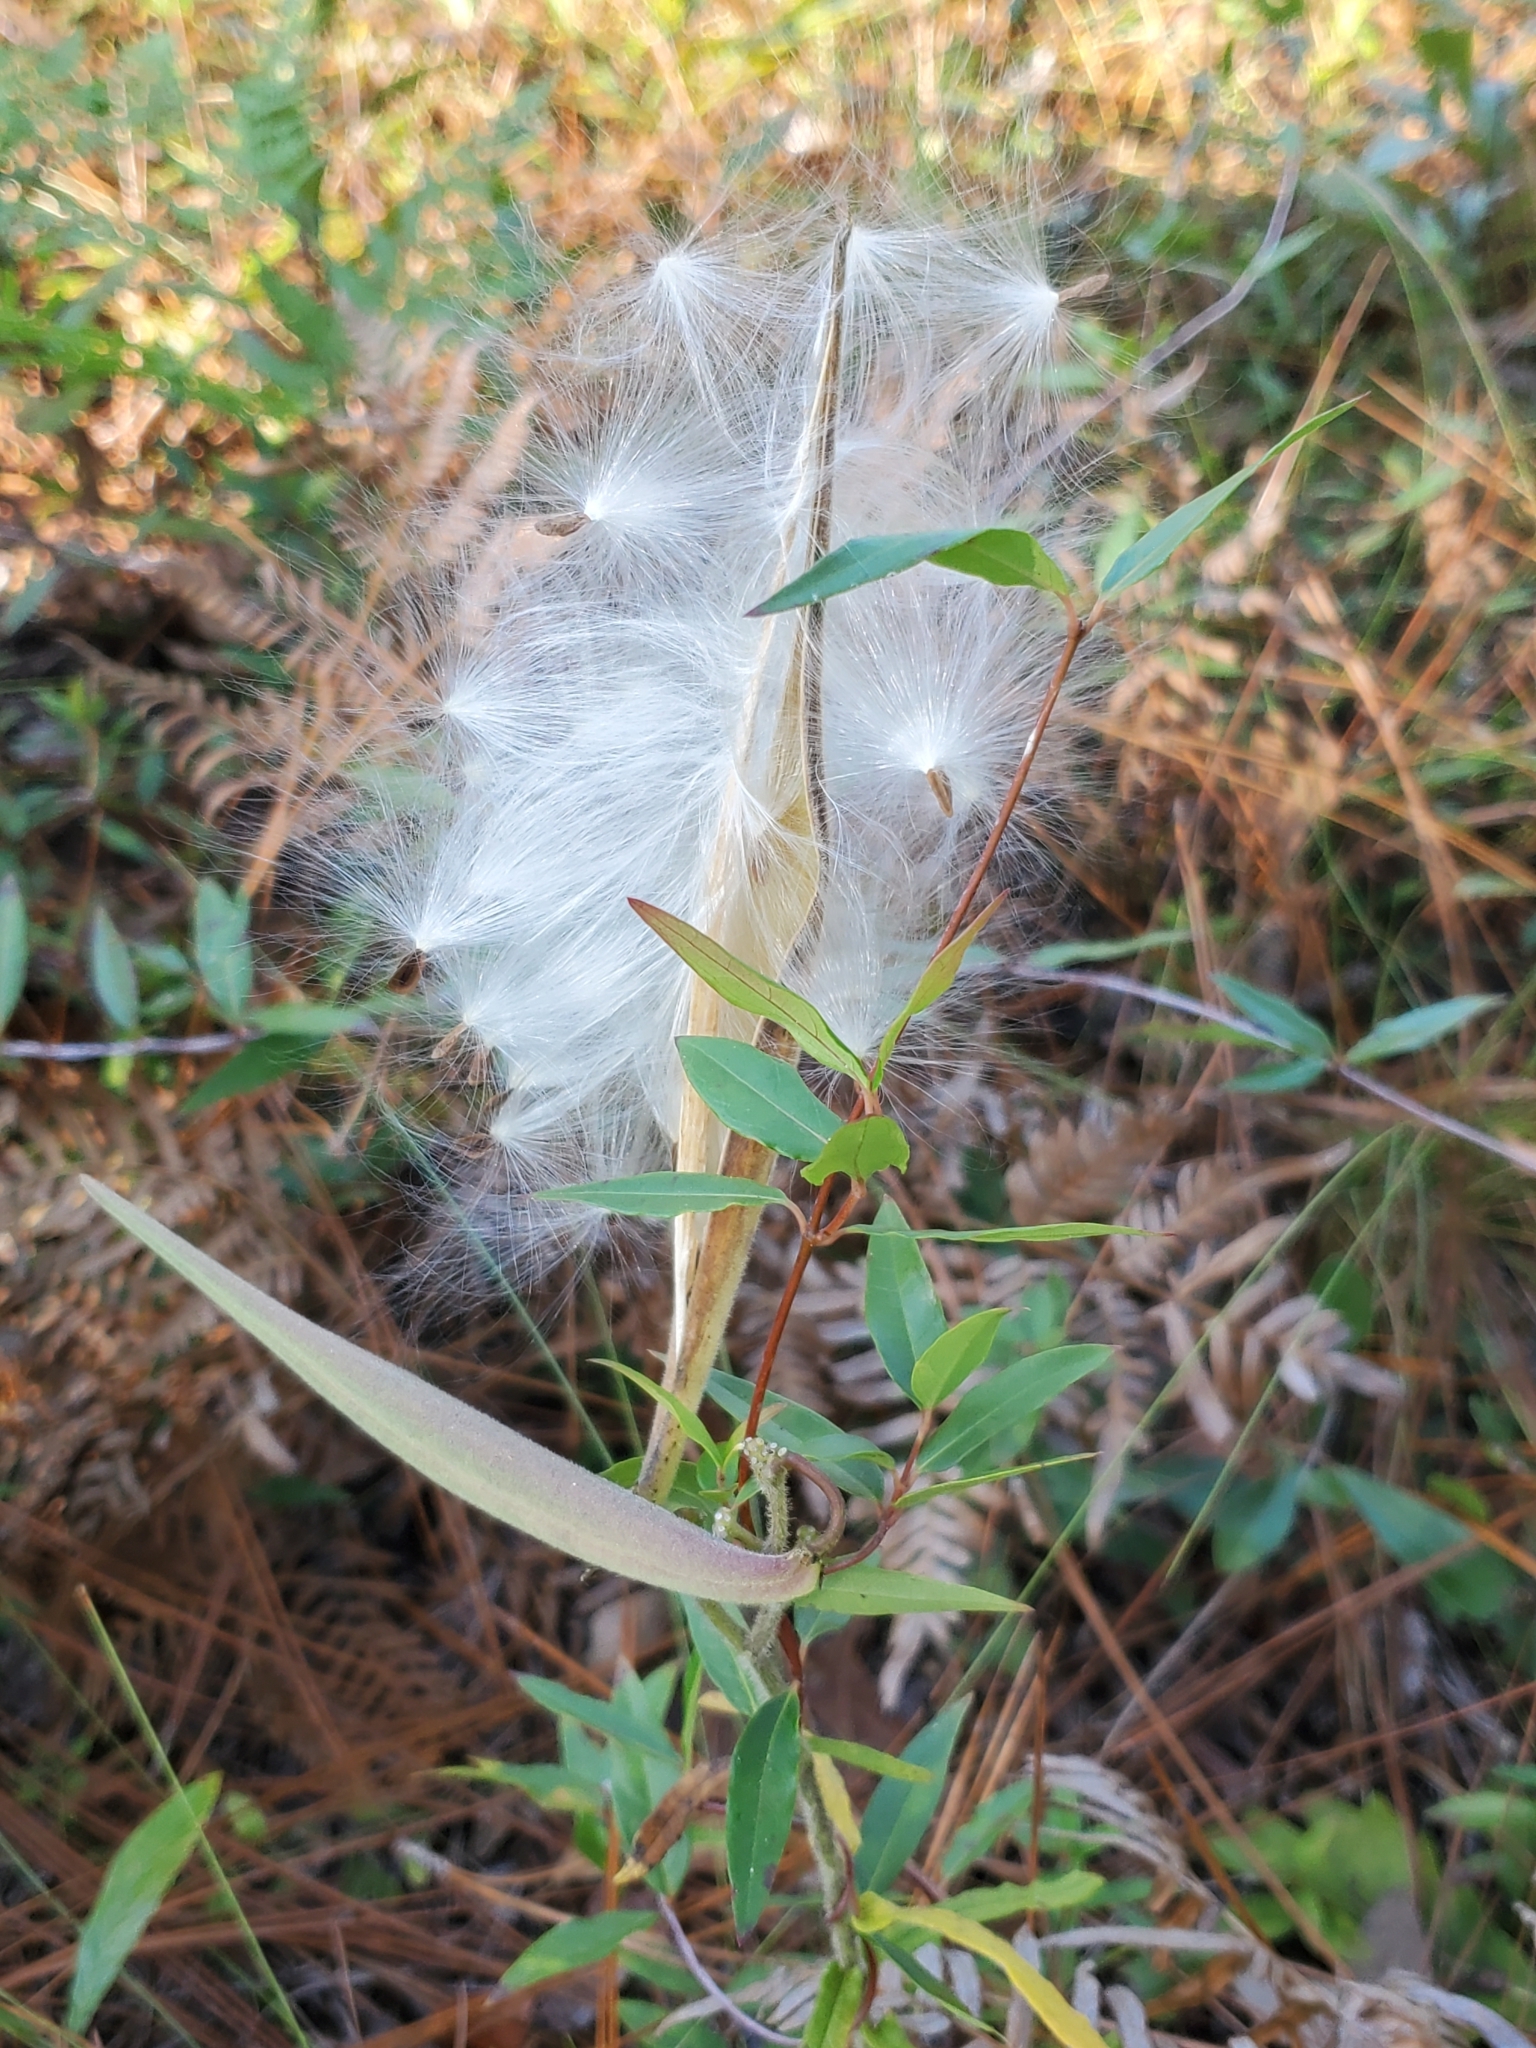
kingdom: Plantae
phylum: Tracheophyta
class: Magnoliopsida
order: Gentianales
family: Apocynaceae
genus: Asclepias
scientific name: Asclepias tuberosa
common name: Butterfly milkweed
